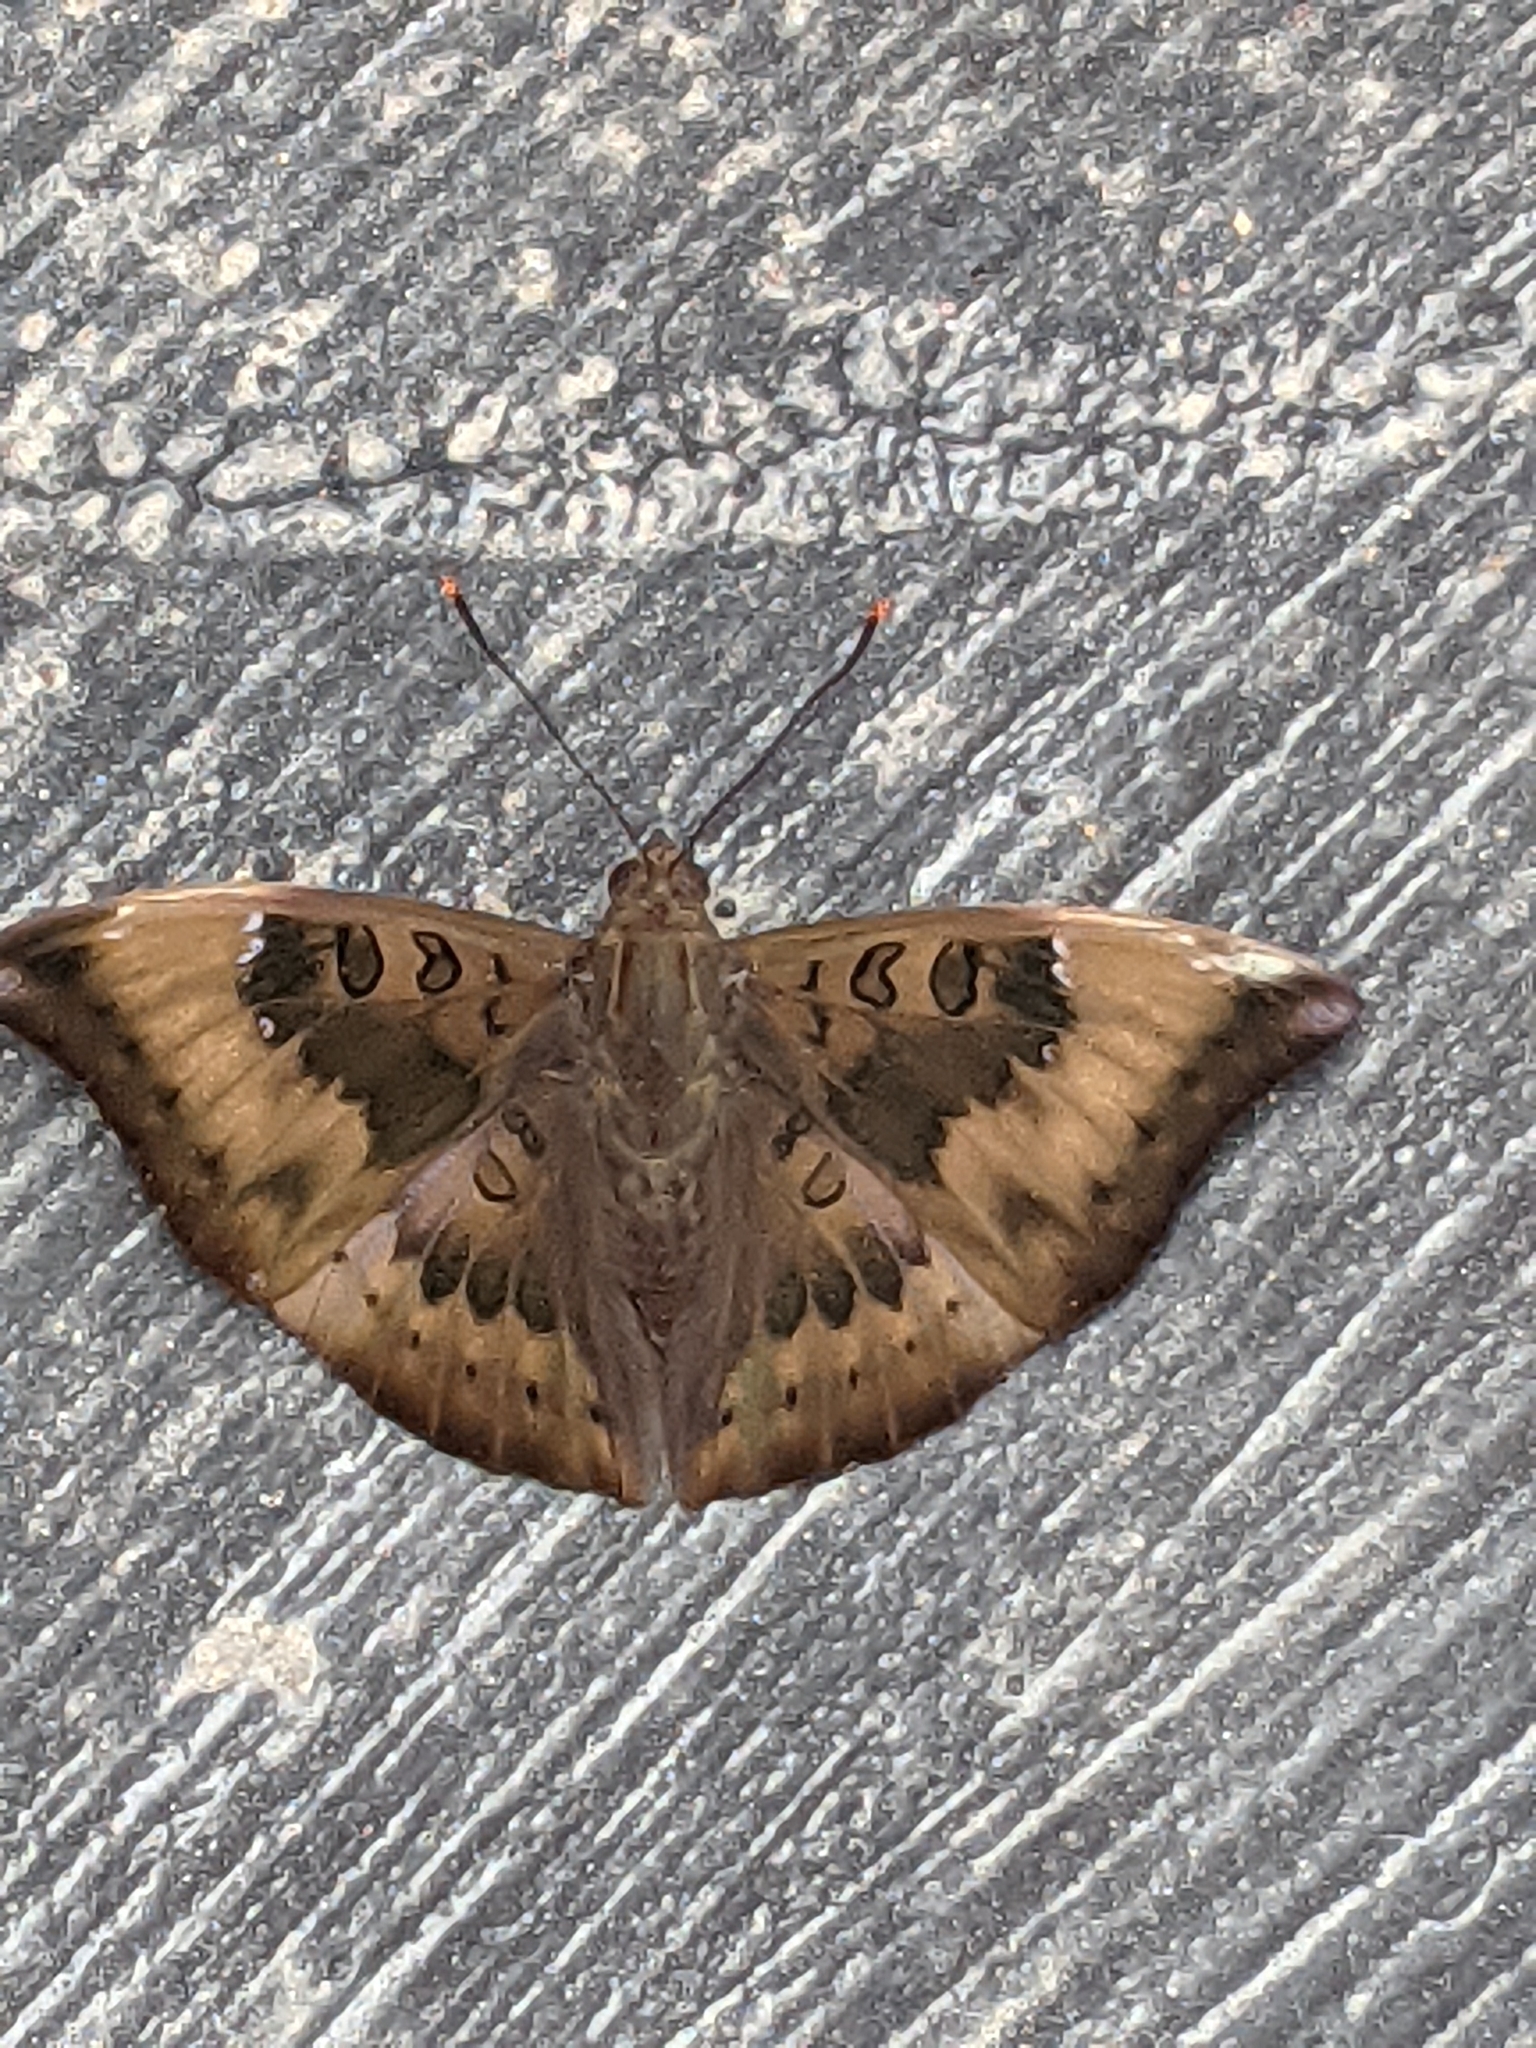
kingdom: Animalia
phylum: Arthropoda
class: Insecta
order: Lepidoptera
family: Nymphalidae
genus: Euthalia
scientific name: Euthalia aconthea
